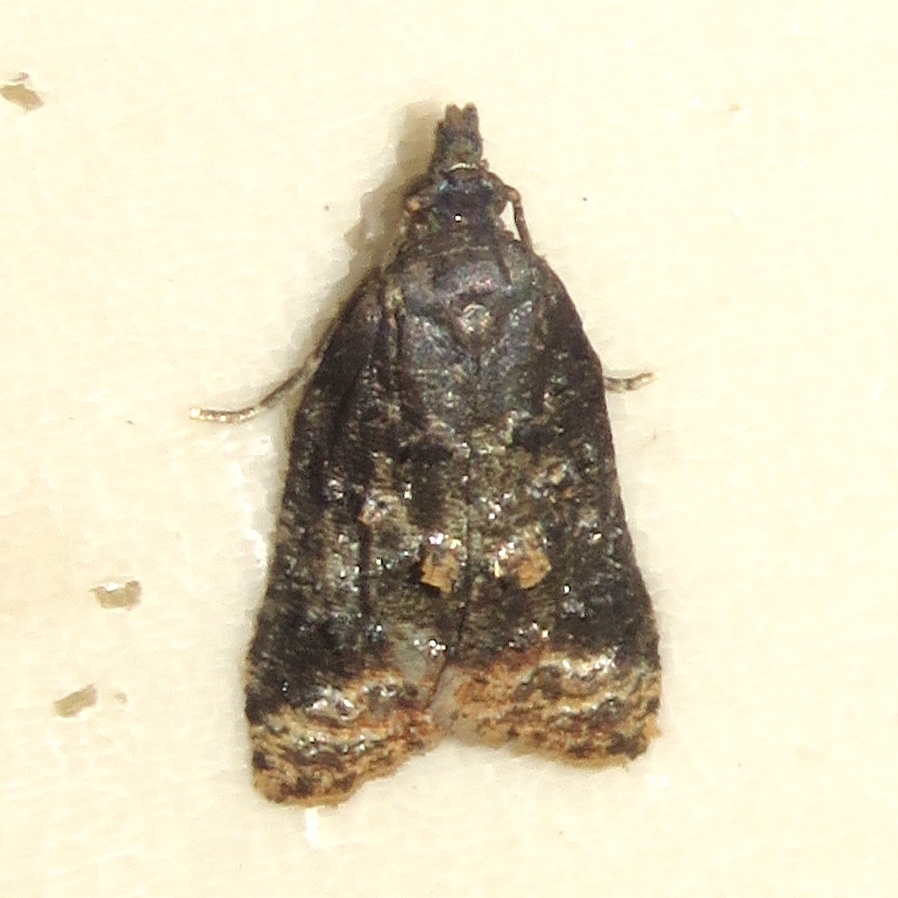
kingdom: Animalia
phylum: Arthropoda
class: Insecta
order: Lepidoptera
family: Tortricidae
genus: Platynota
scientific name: Platynota semiustana
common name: Singed platynota
